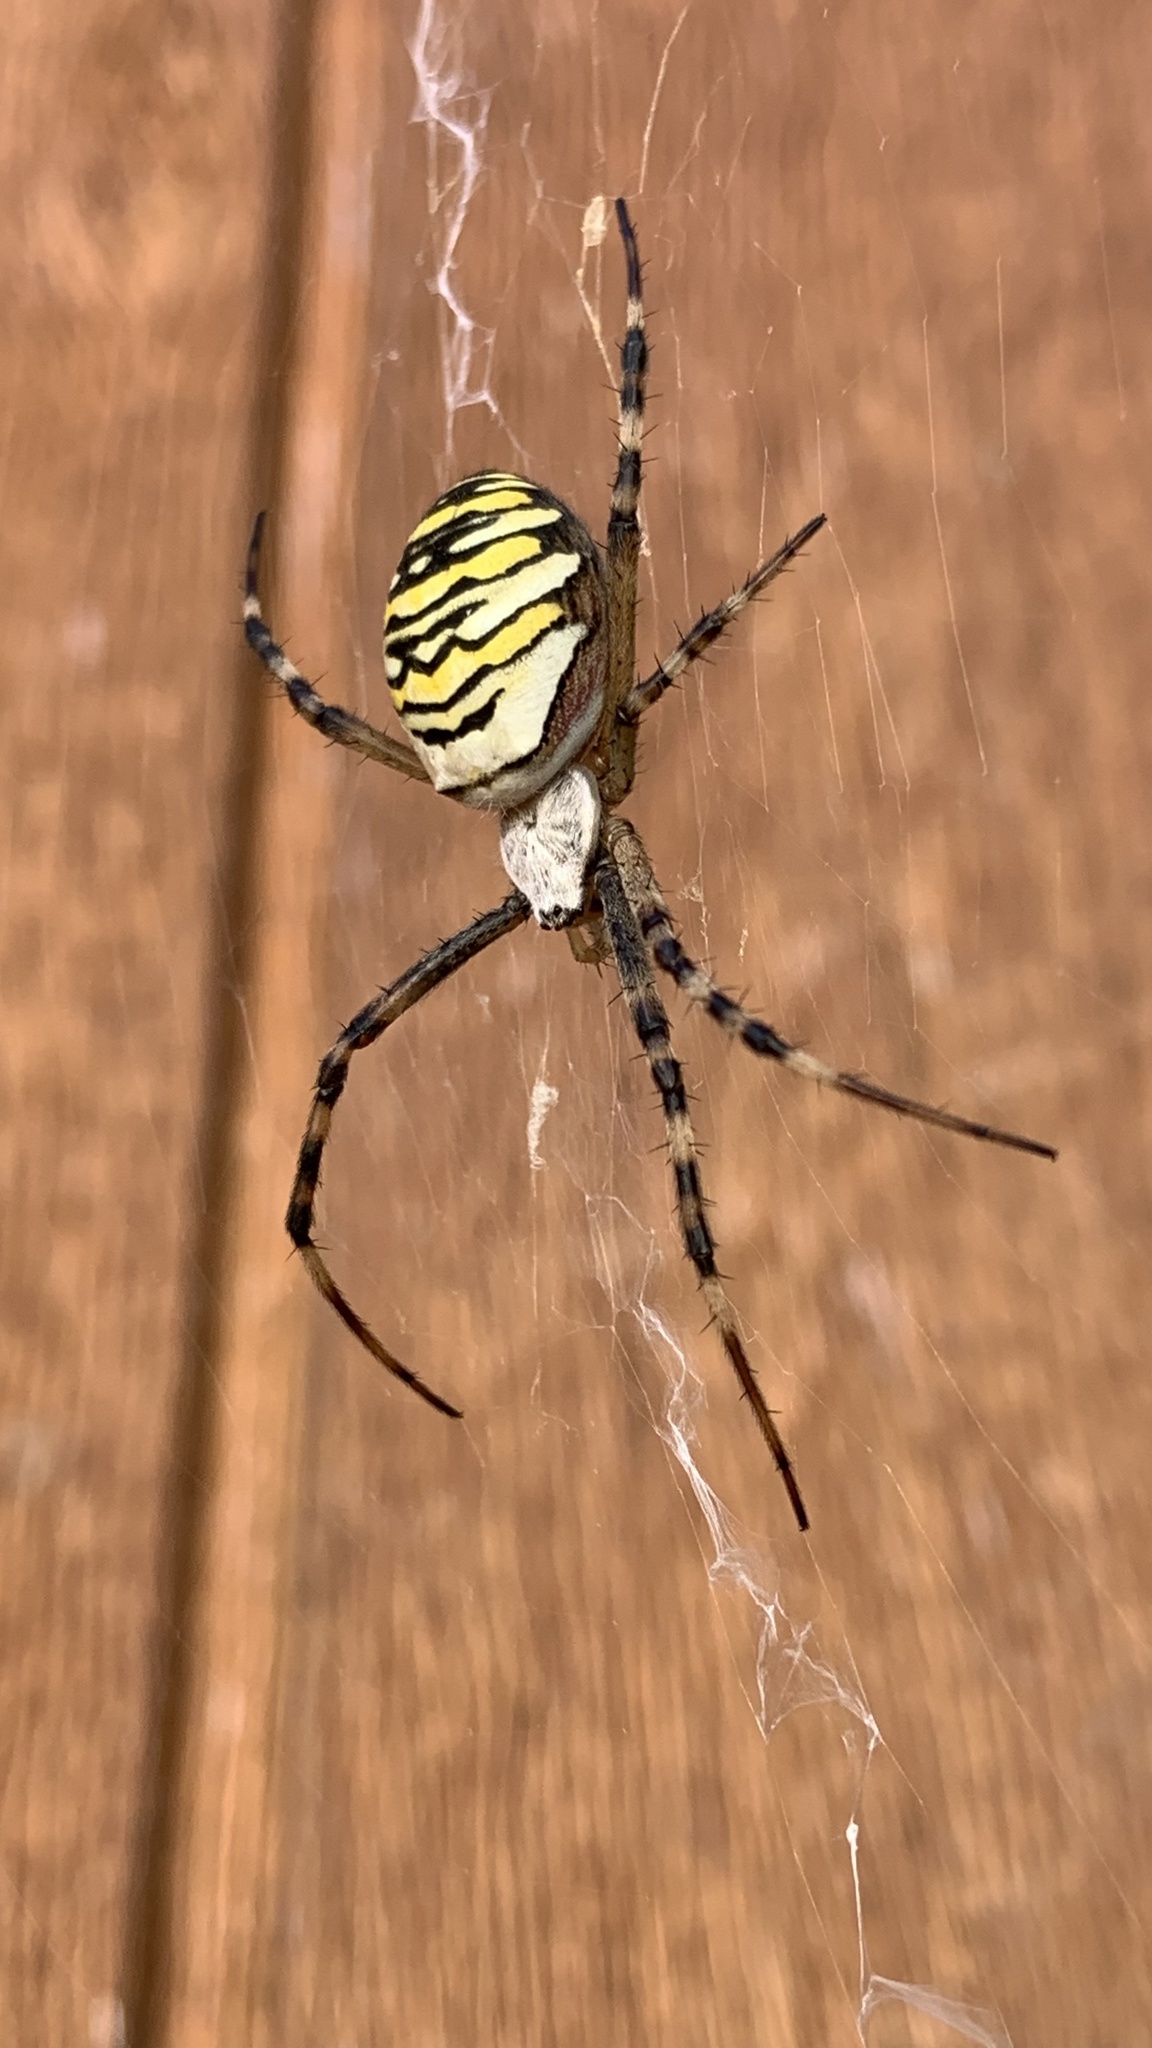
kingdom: Animalia
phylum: Arthropoda
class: Arachnida
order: Araneae
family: Araneidae
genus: Argiope
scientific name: Argiope bruennichi
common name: Wasp spider
